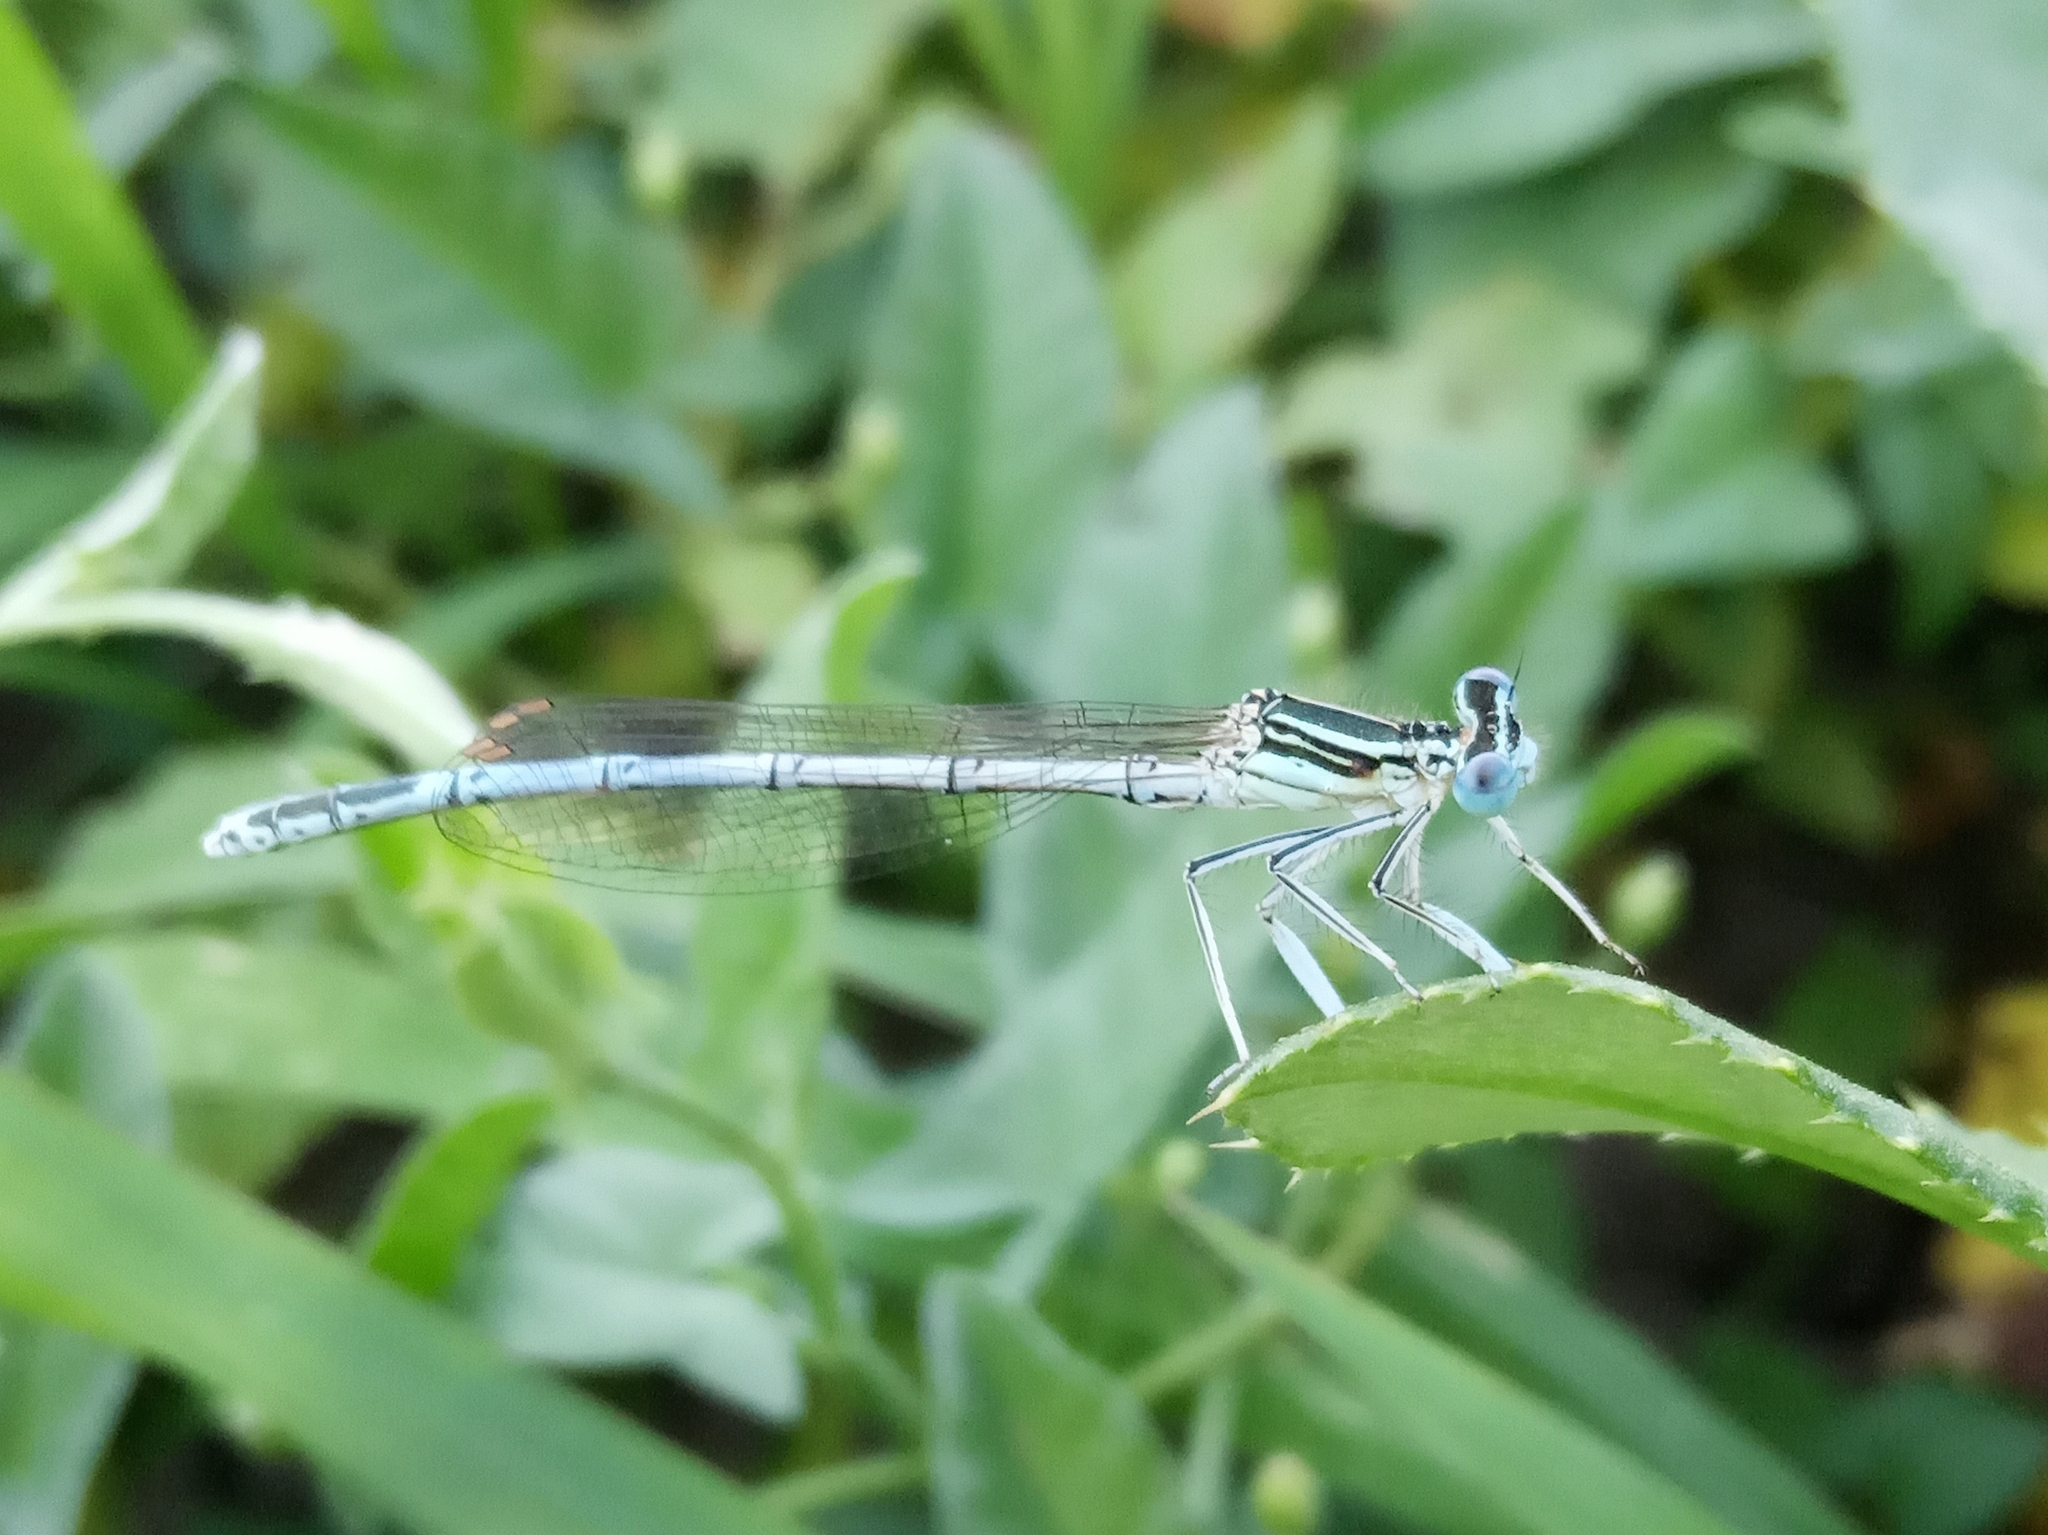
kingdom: Animalia
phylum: Arthropoda
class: Insecta
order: Odonata
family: Platycnemididae
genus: Platycnemis
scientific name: Platycnemis pennipes
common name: White-legged damselfly
